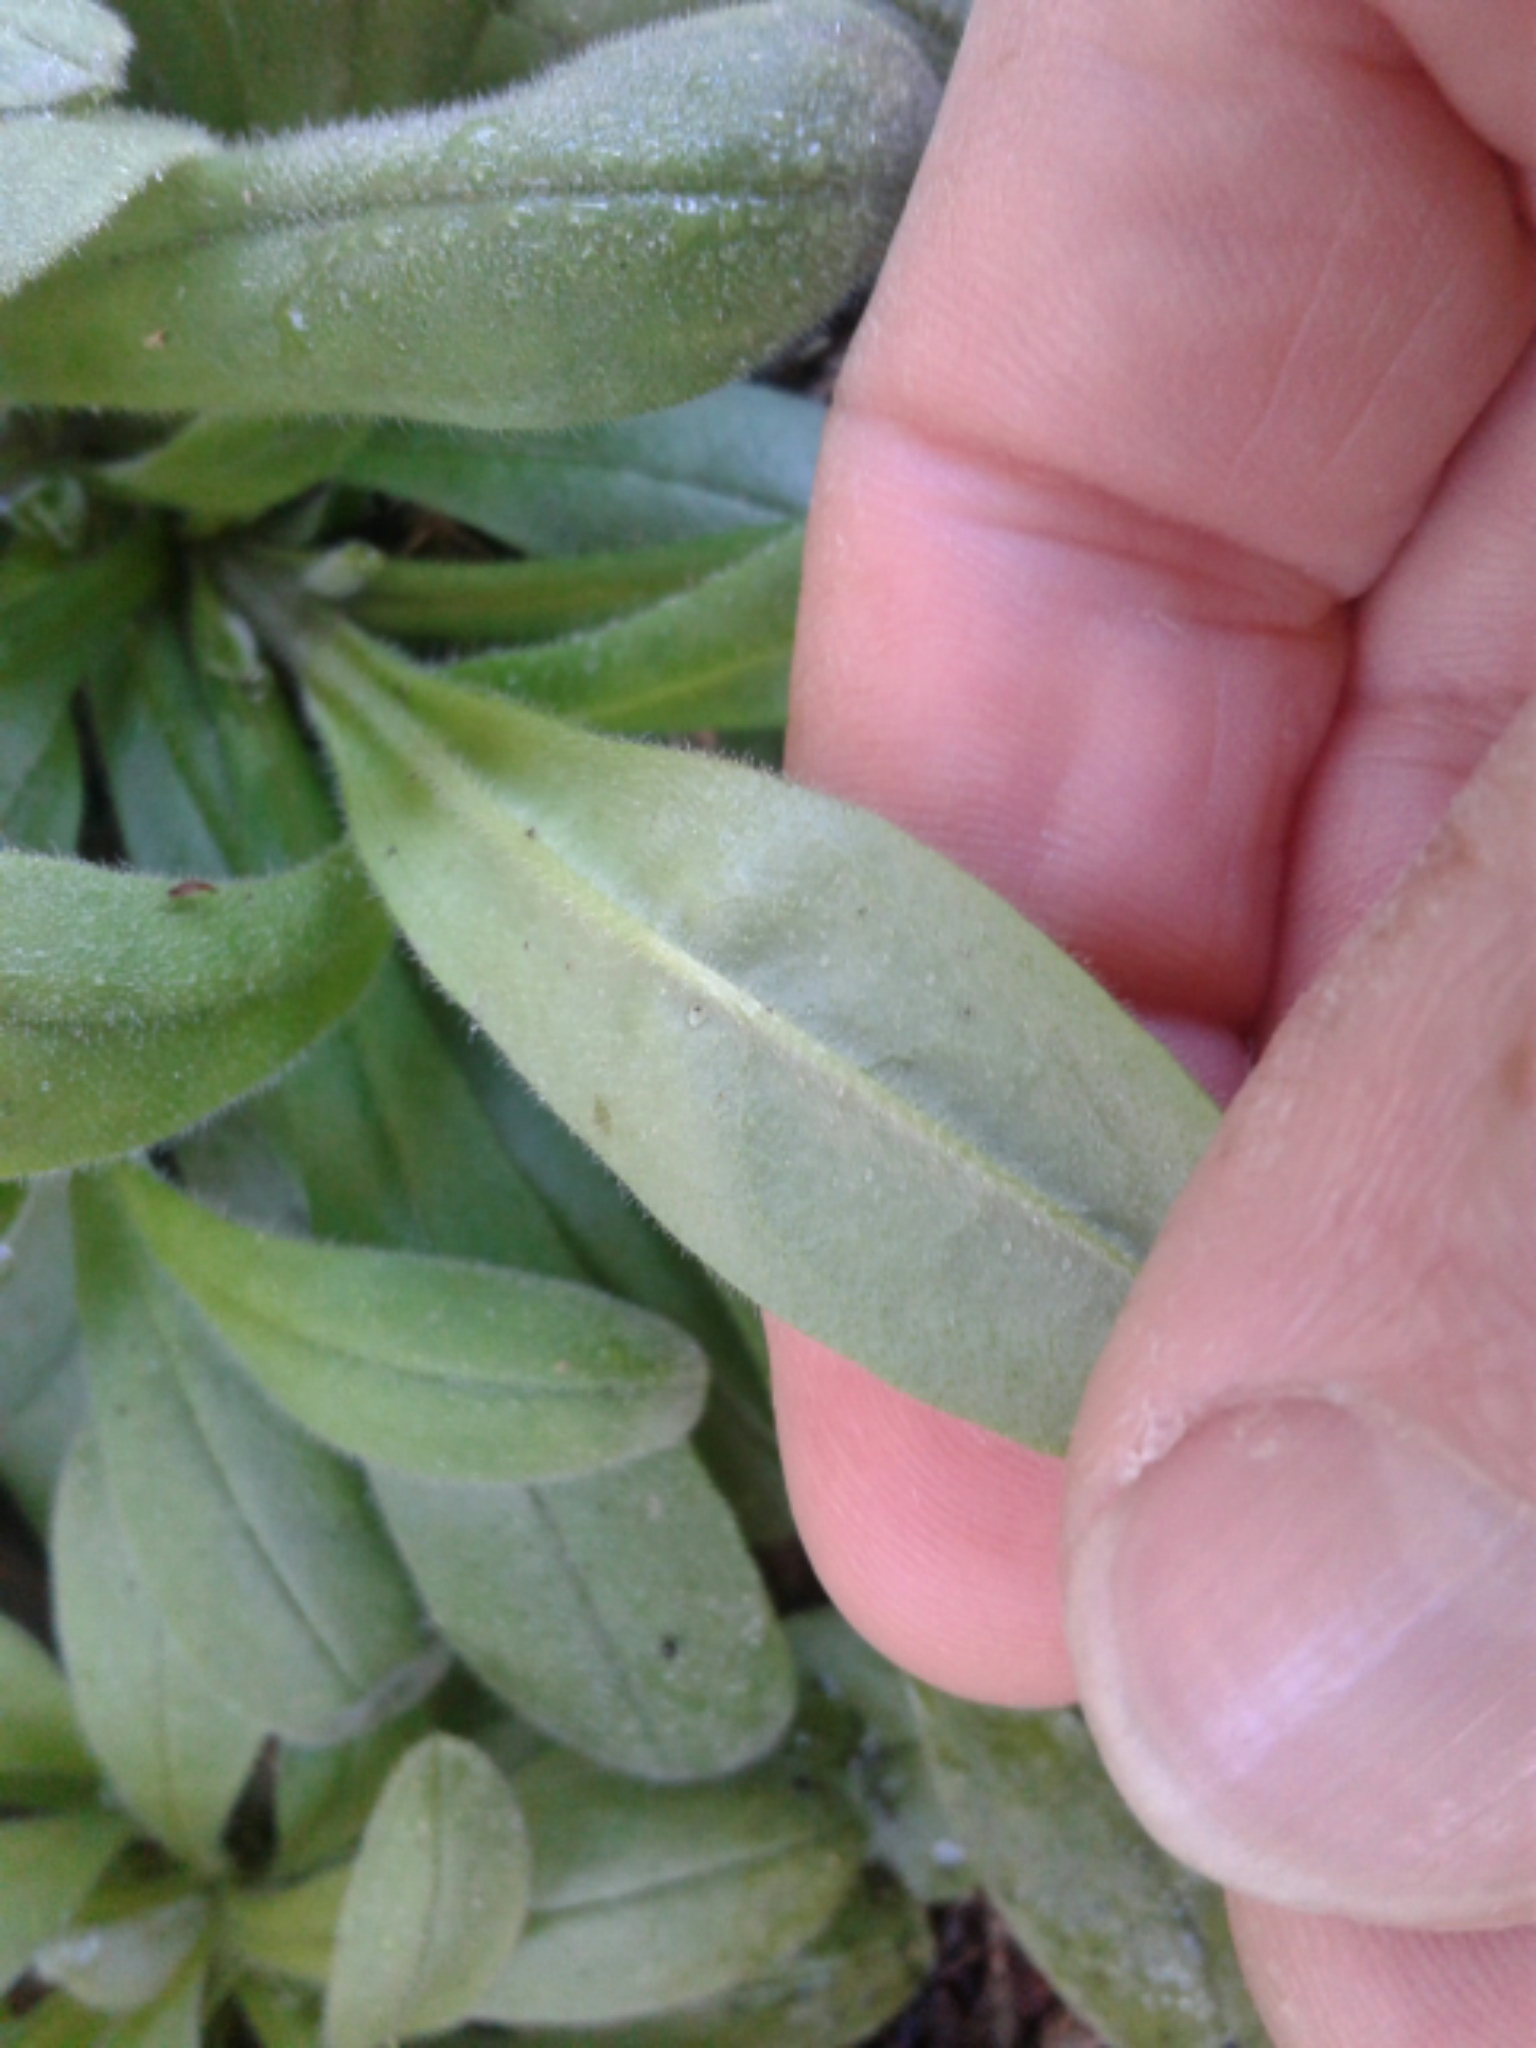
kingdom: Plantae
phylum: Tracheophyta
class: Magnoliopsida
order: Boraginales
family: Boraginaceae
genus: Myosotis
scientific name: Myosotis sylvatica
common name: Wood forget-me-not
